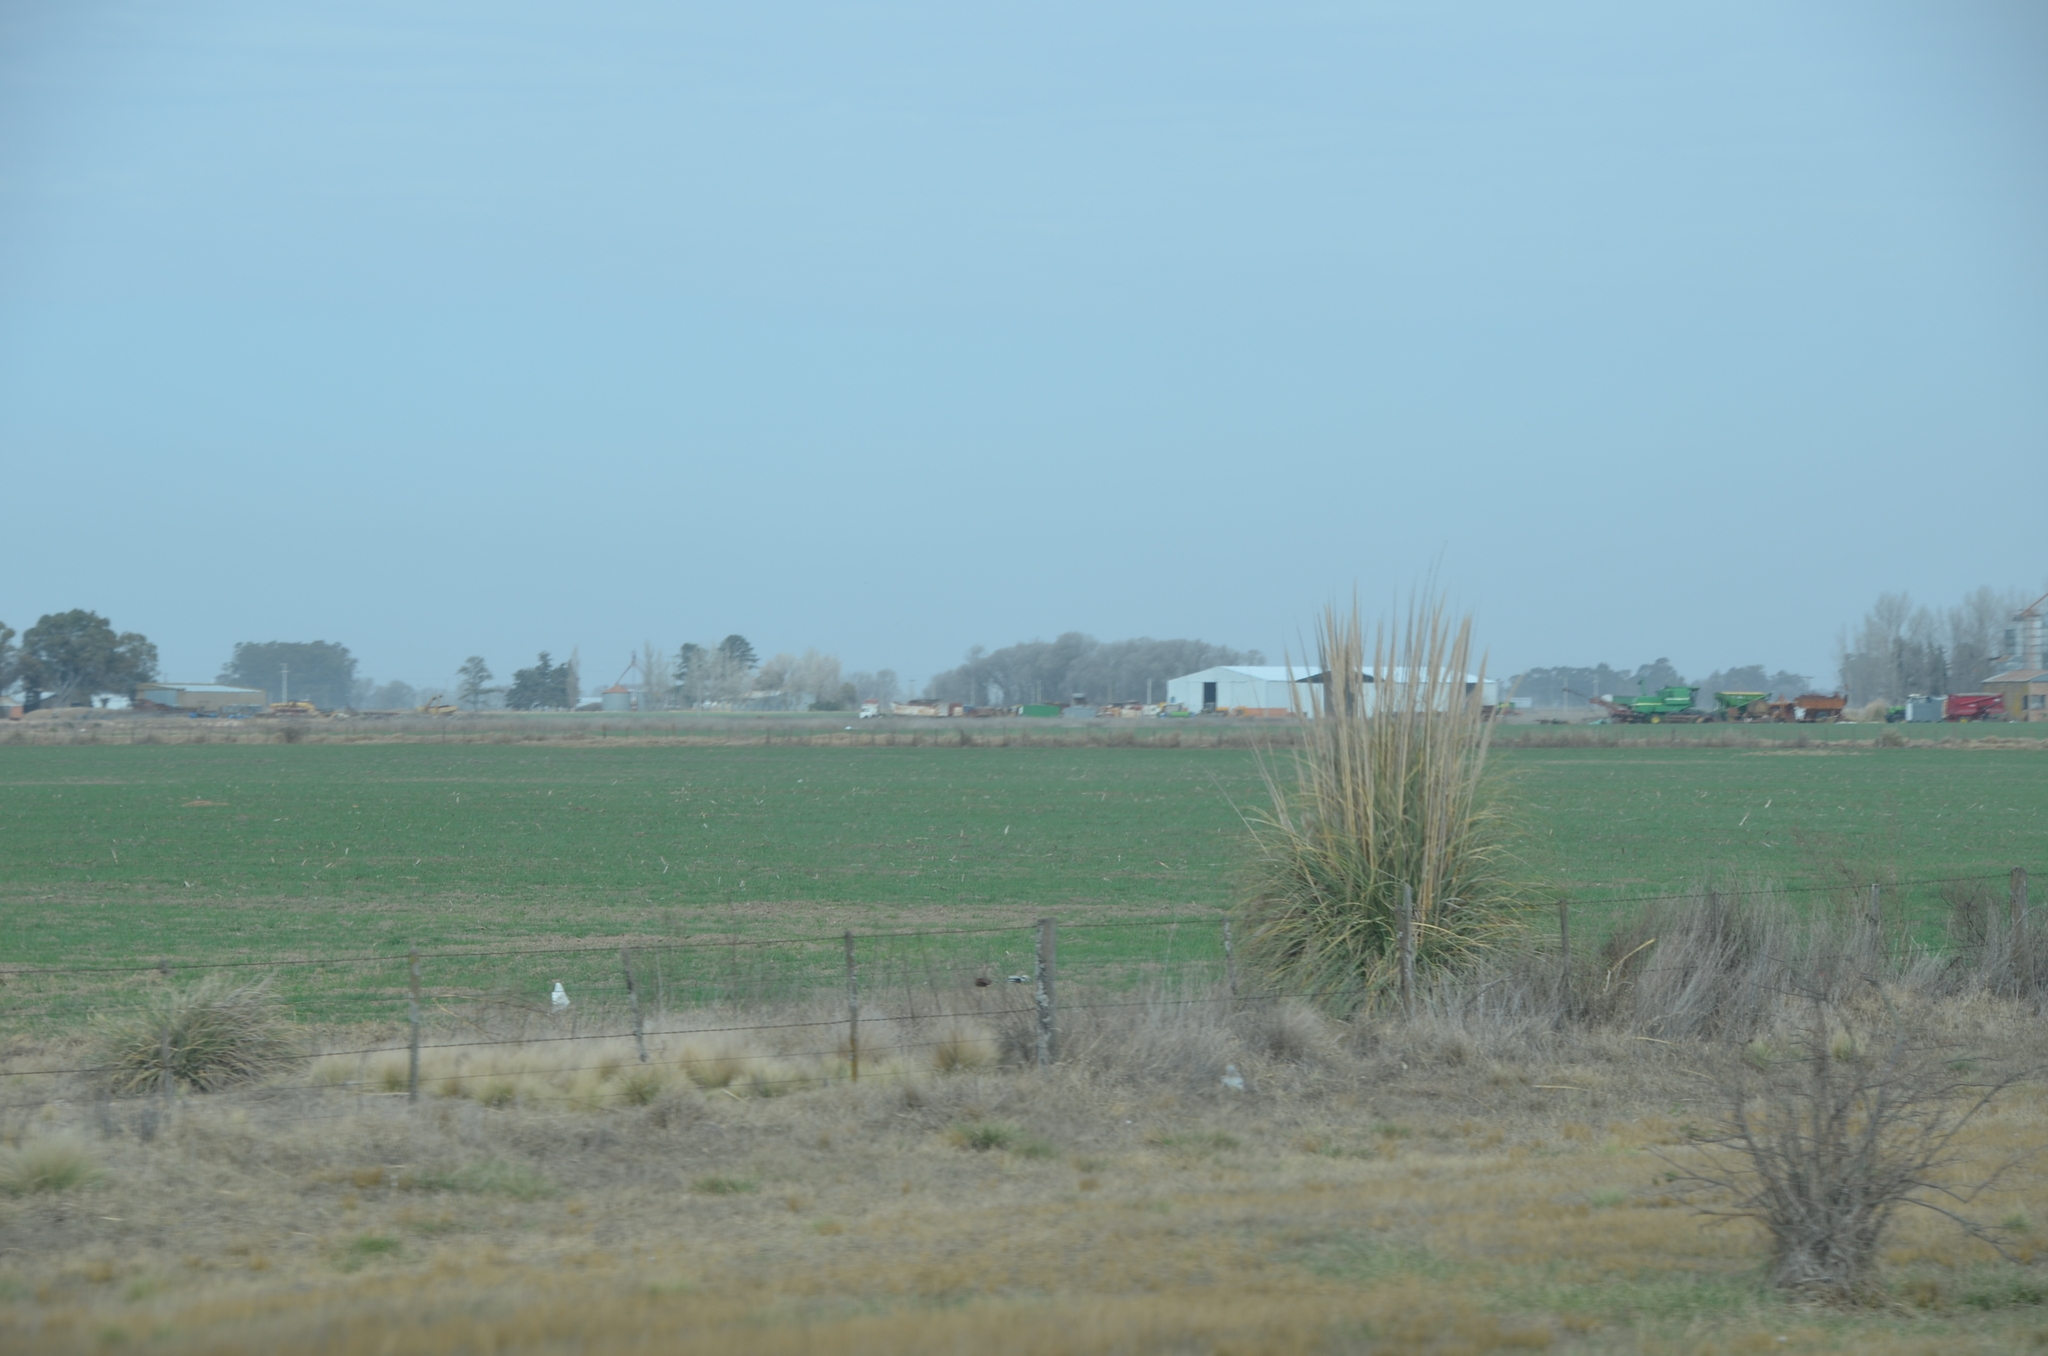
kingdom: Plantae
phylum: Tracheophyta
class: Liliopsida
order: Poales
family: Poaceae
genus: Cortaderia
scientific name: Cortaderia selloana
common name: Uruguayan pampas grass
